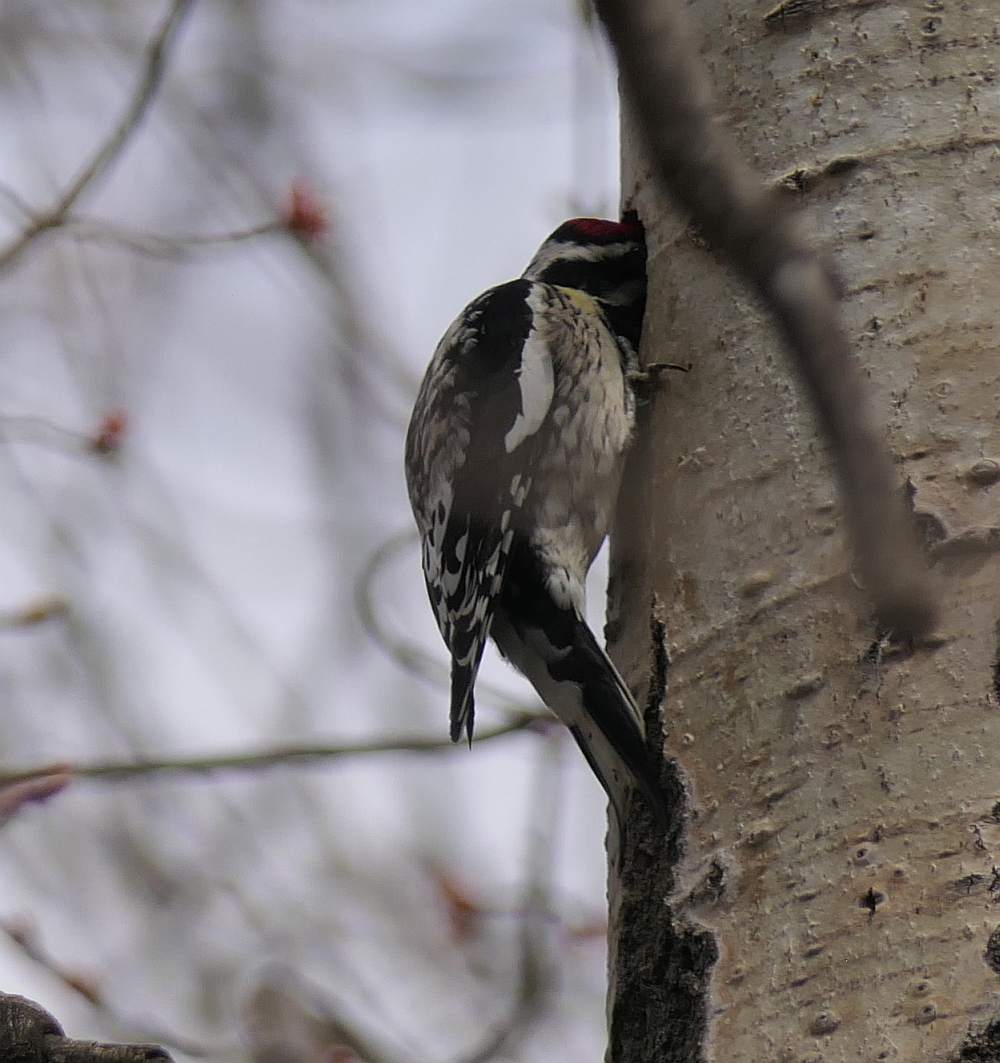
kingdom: Animalia
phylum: Chordata
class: Aves
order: Piciformes
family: Picidae
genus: Sphyrapicus
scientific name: Sphyrapicus varius
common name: Yellow-bellied sapsucker
